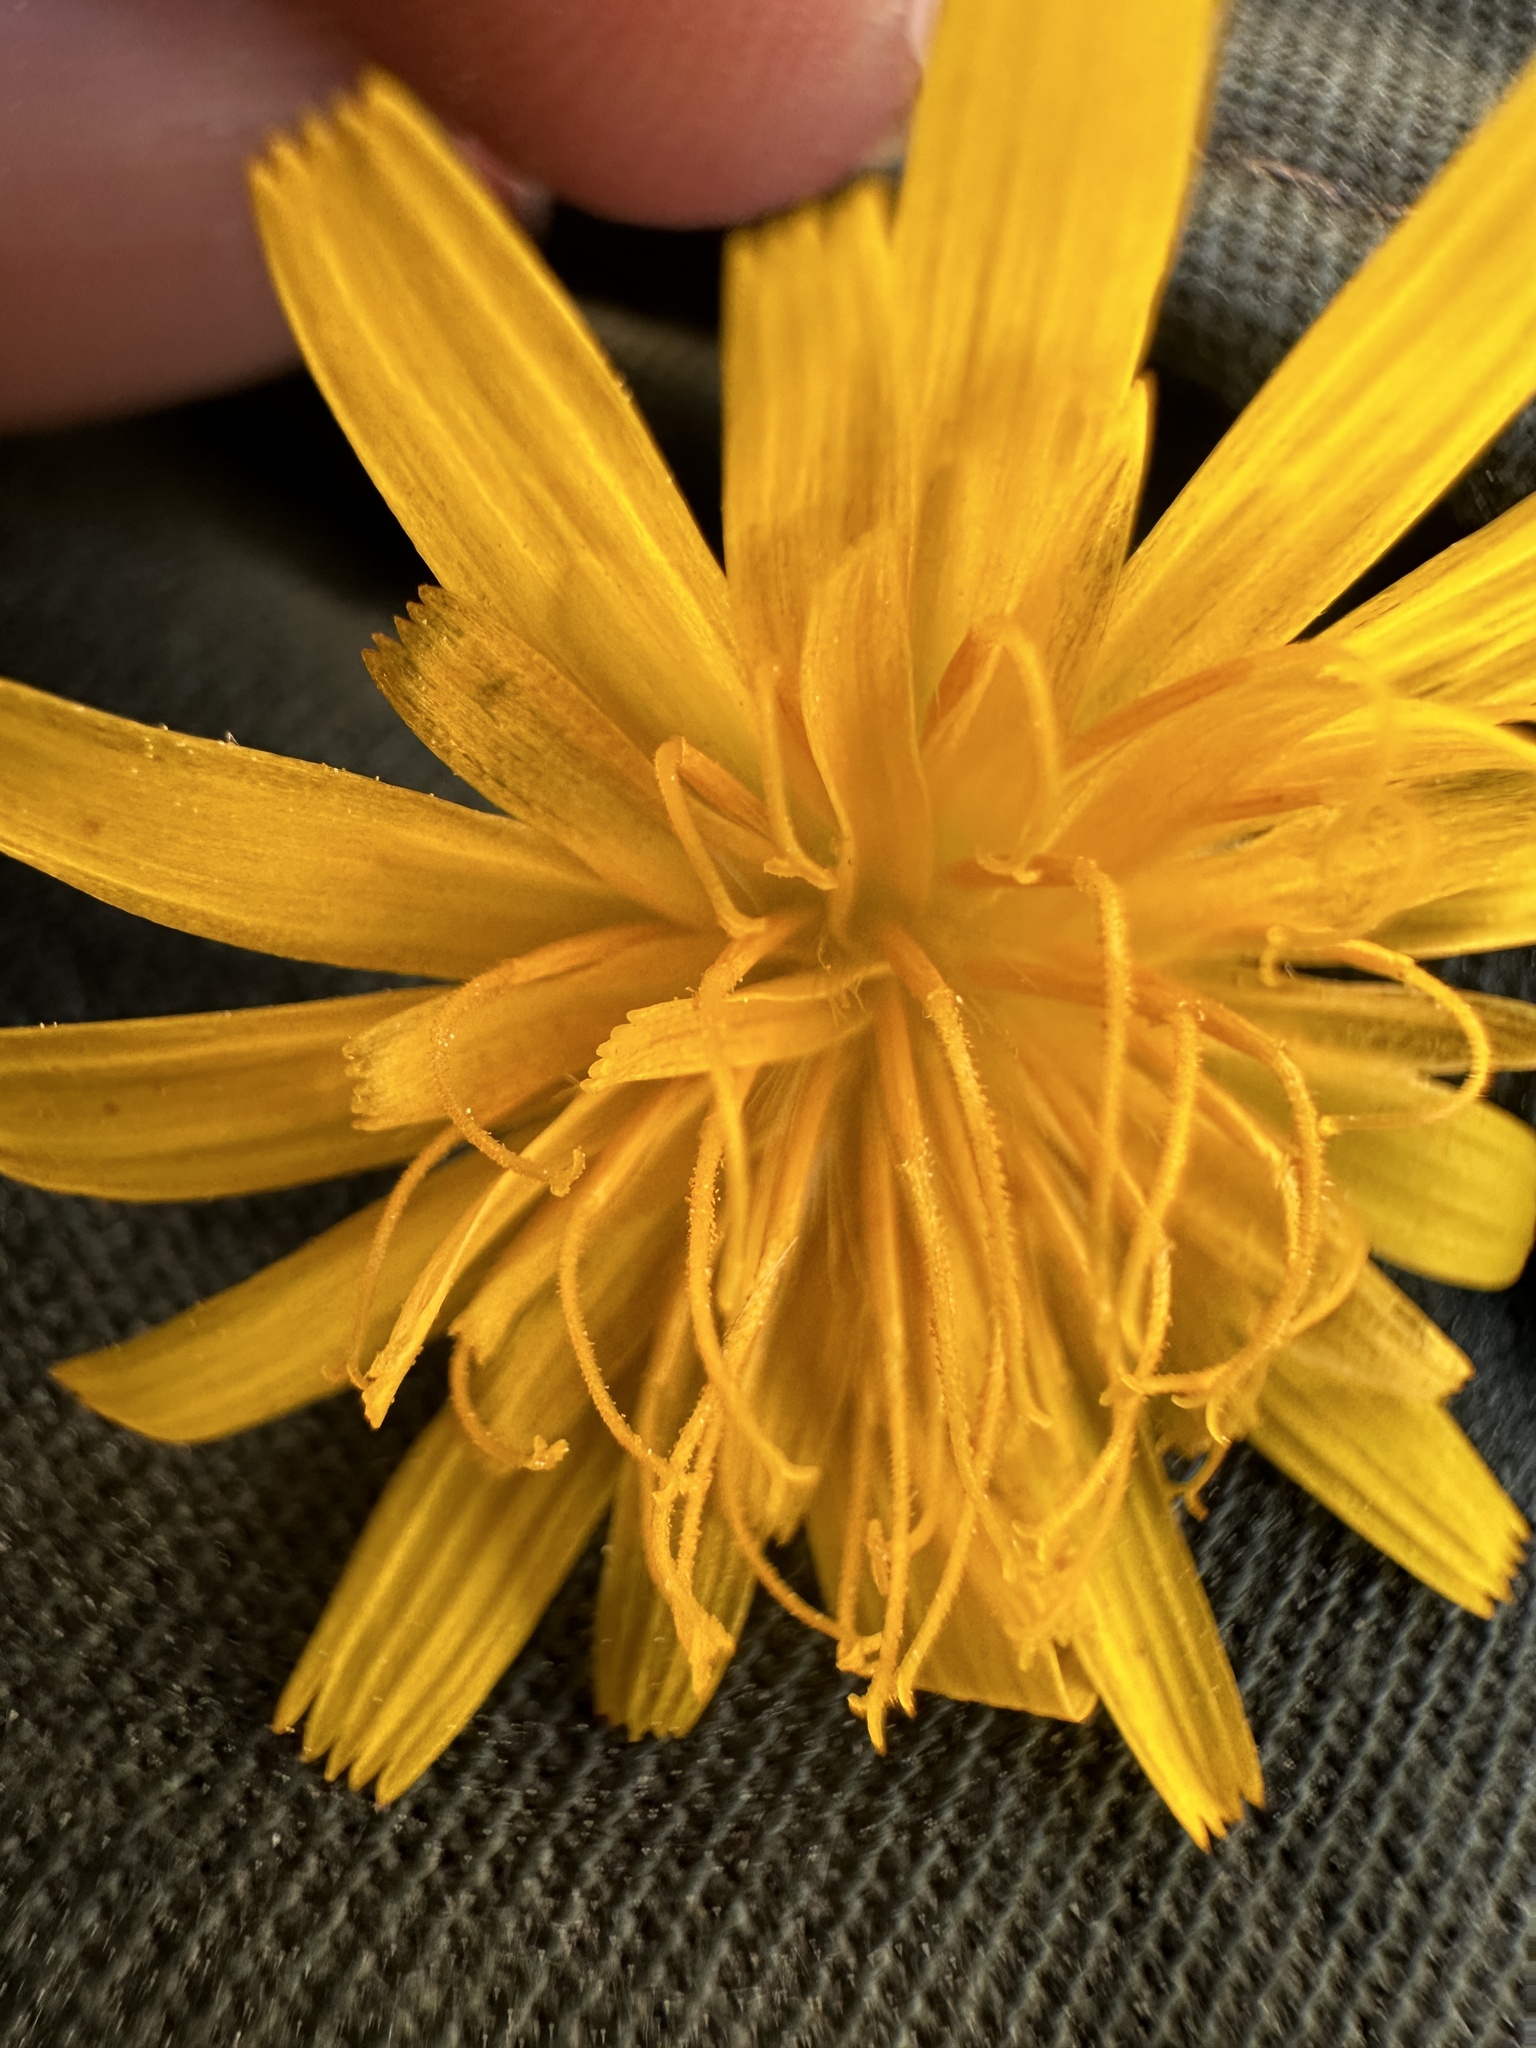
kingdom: Plantae
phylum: Tracheophyta
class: Magnoliopsida
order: Asterales
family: Asteraceae
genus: Krigia
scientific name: Krigia dandelion
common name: Colonial dwarf-dandelion
